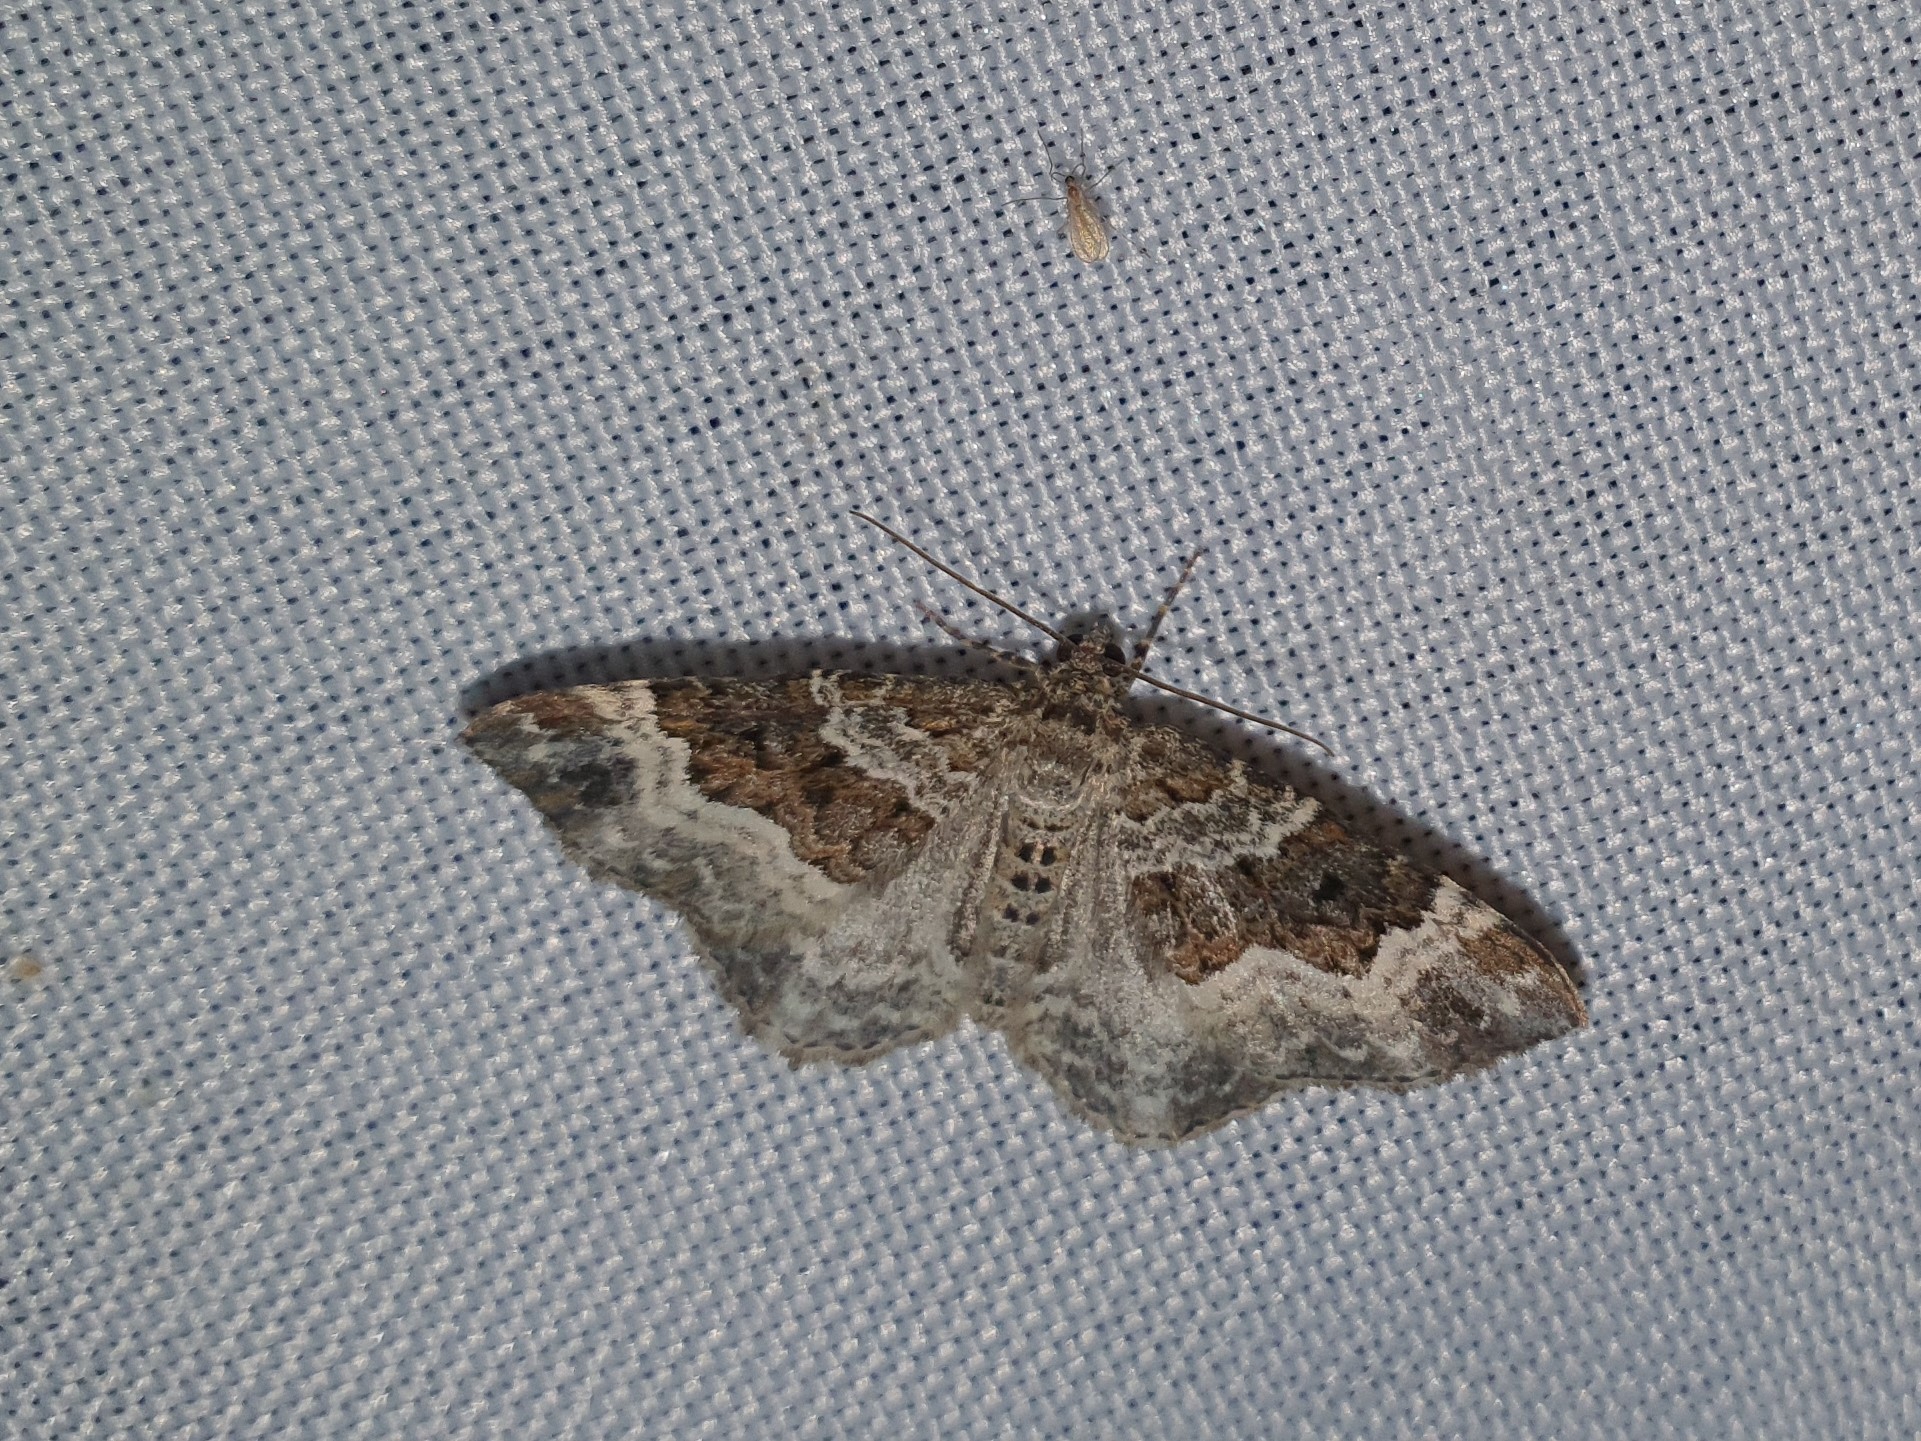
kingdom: Animalia
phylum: Arthropoda
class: Insecta
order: Lepidoptera
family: Geometridae
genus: Epirrhoe
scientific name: Epirrhoe alternata
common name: Common carpet
